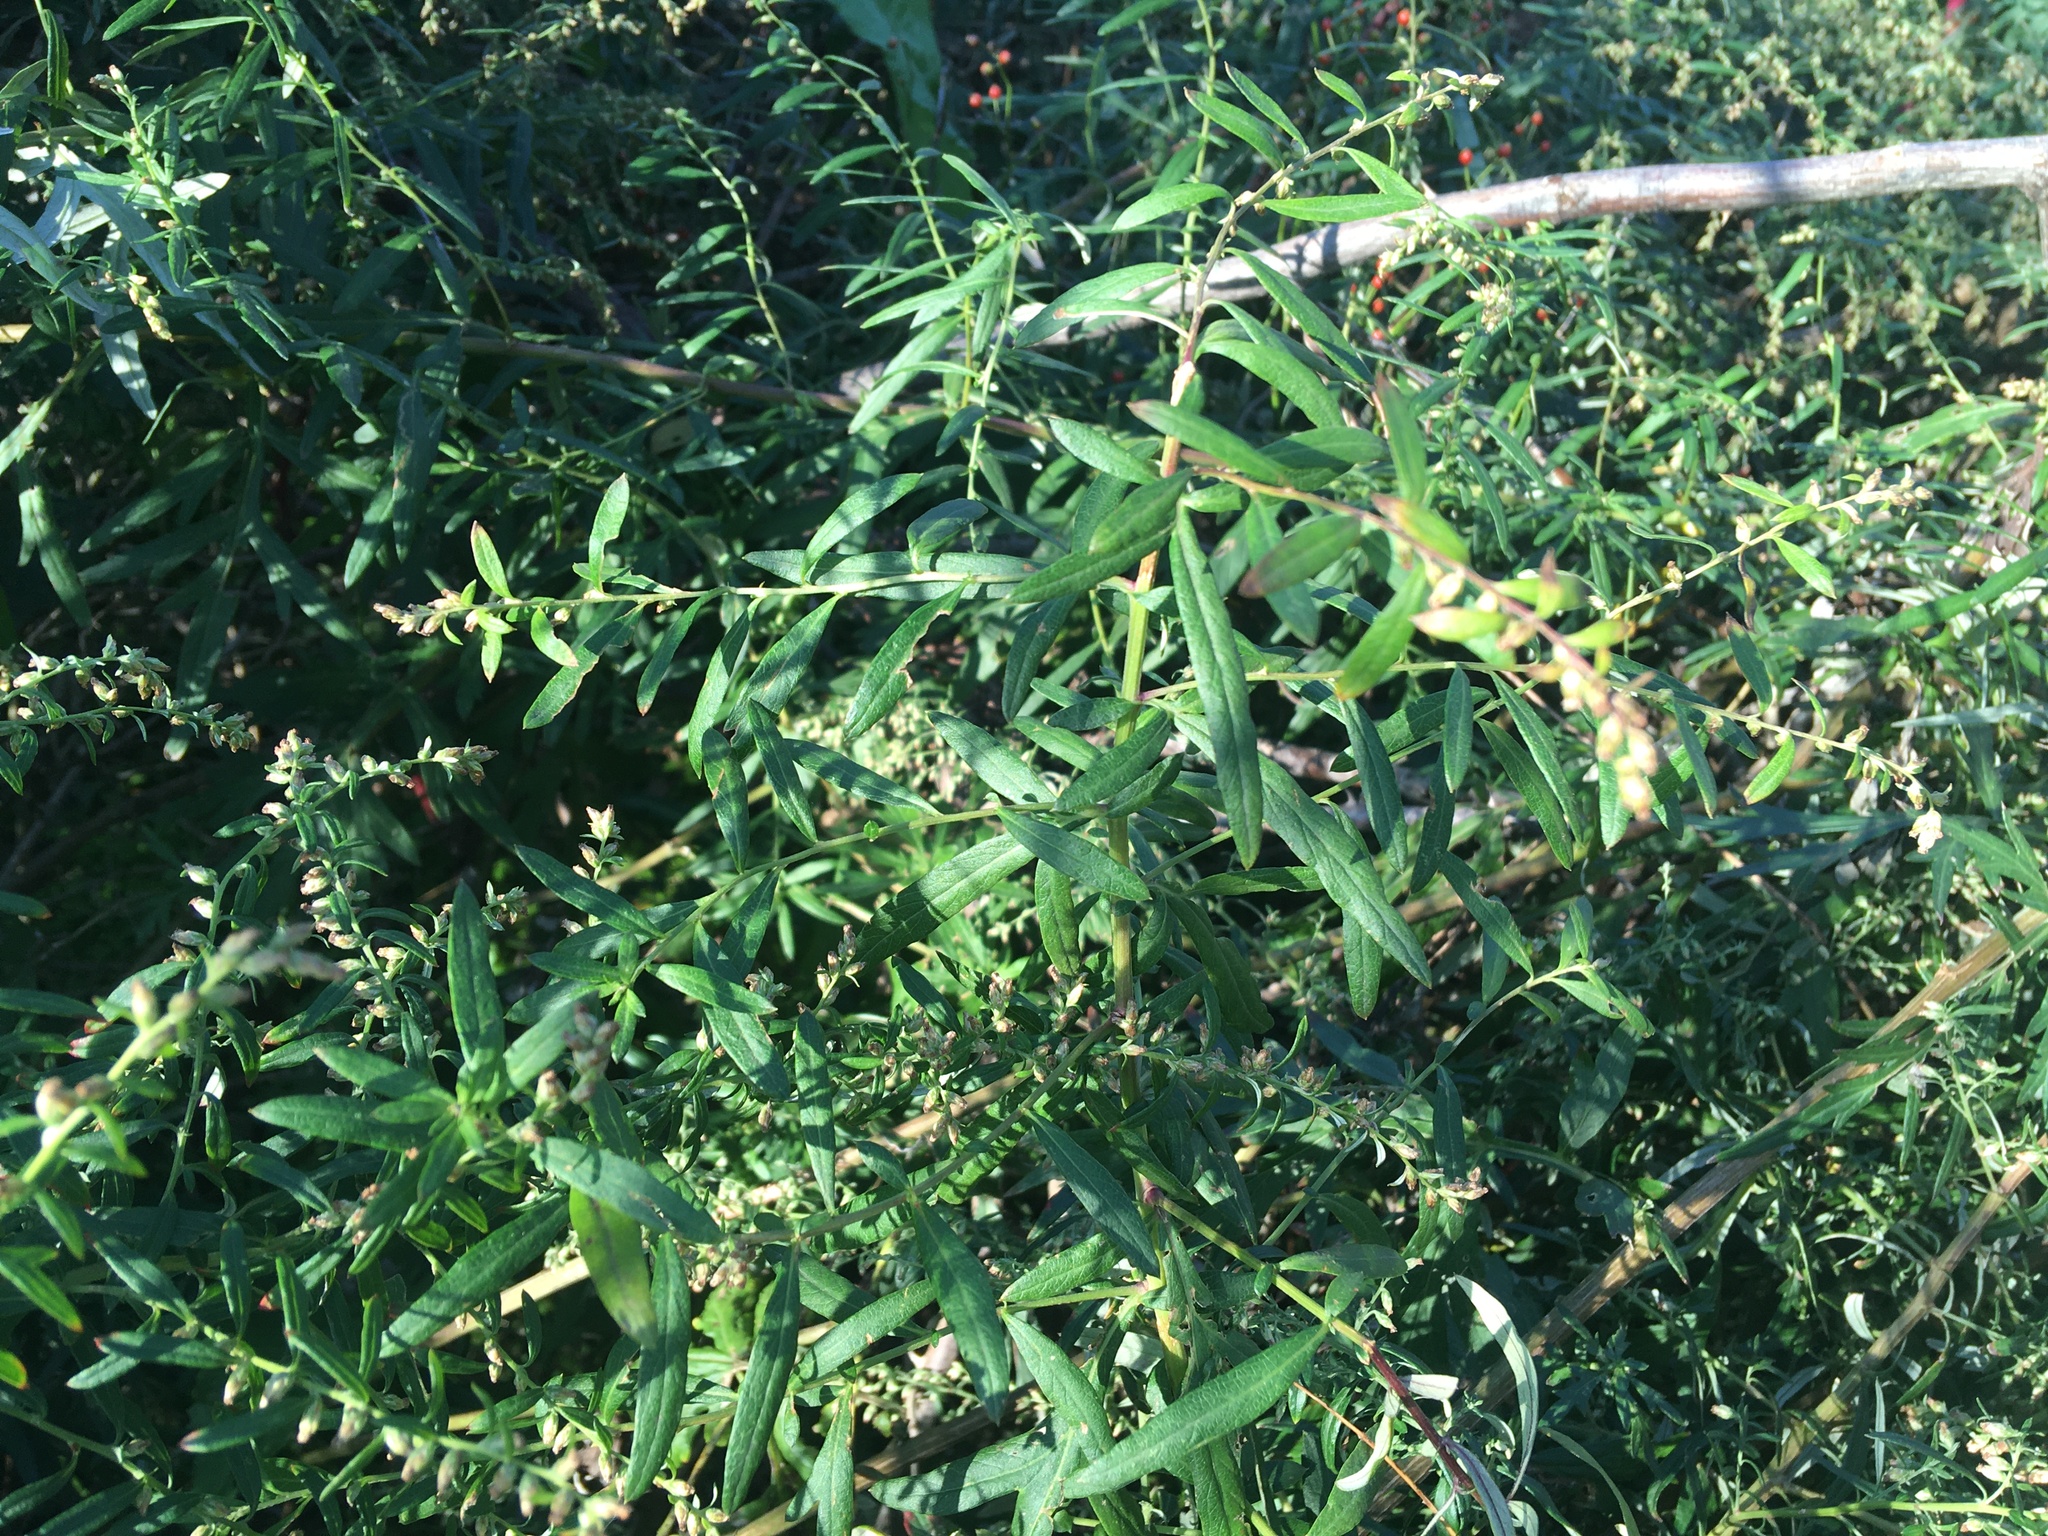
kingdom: Plantae
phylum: Tracheophyta
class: Magnoliopsida
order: Asterales
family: Asteraceae
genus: Artemisia
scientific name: Artemisia vulgaris
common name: Mugwort
